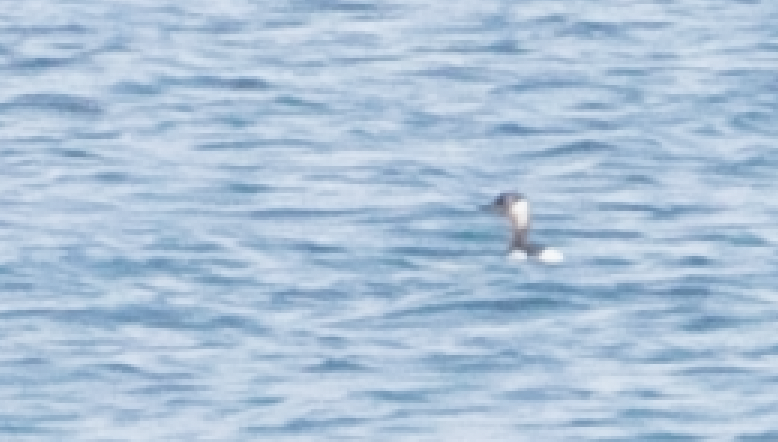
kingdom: Animalia
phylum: Chordata
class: Aves
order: Podicipediformes
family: Podicipedidae
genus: Podiceps
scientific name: Podiceps grisegena
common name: Red-necked grebe
